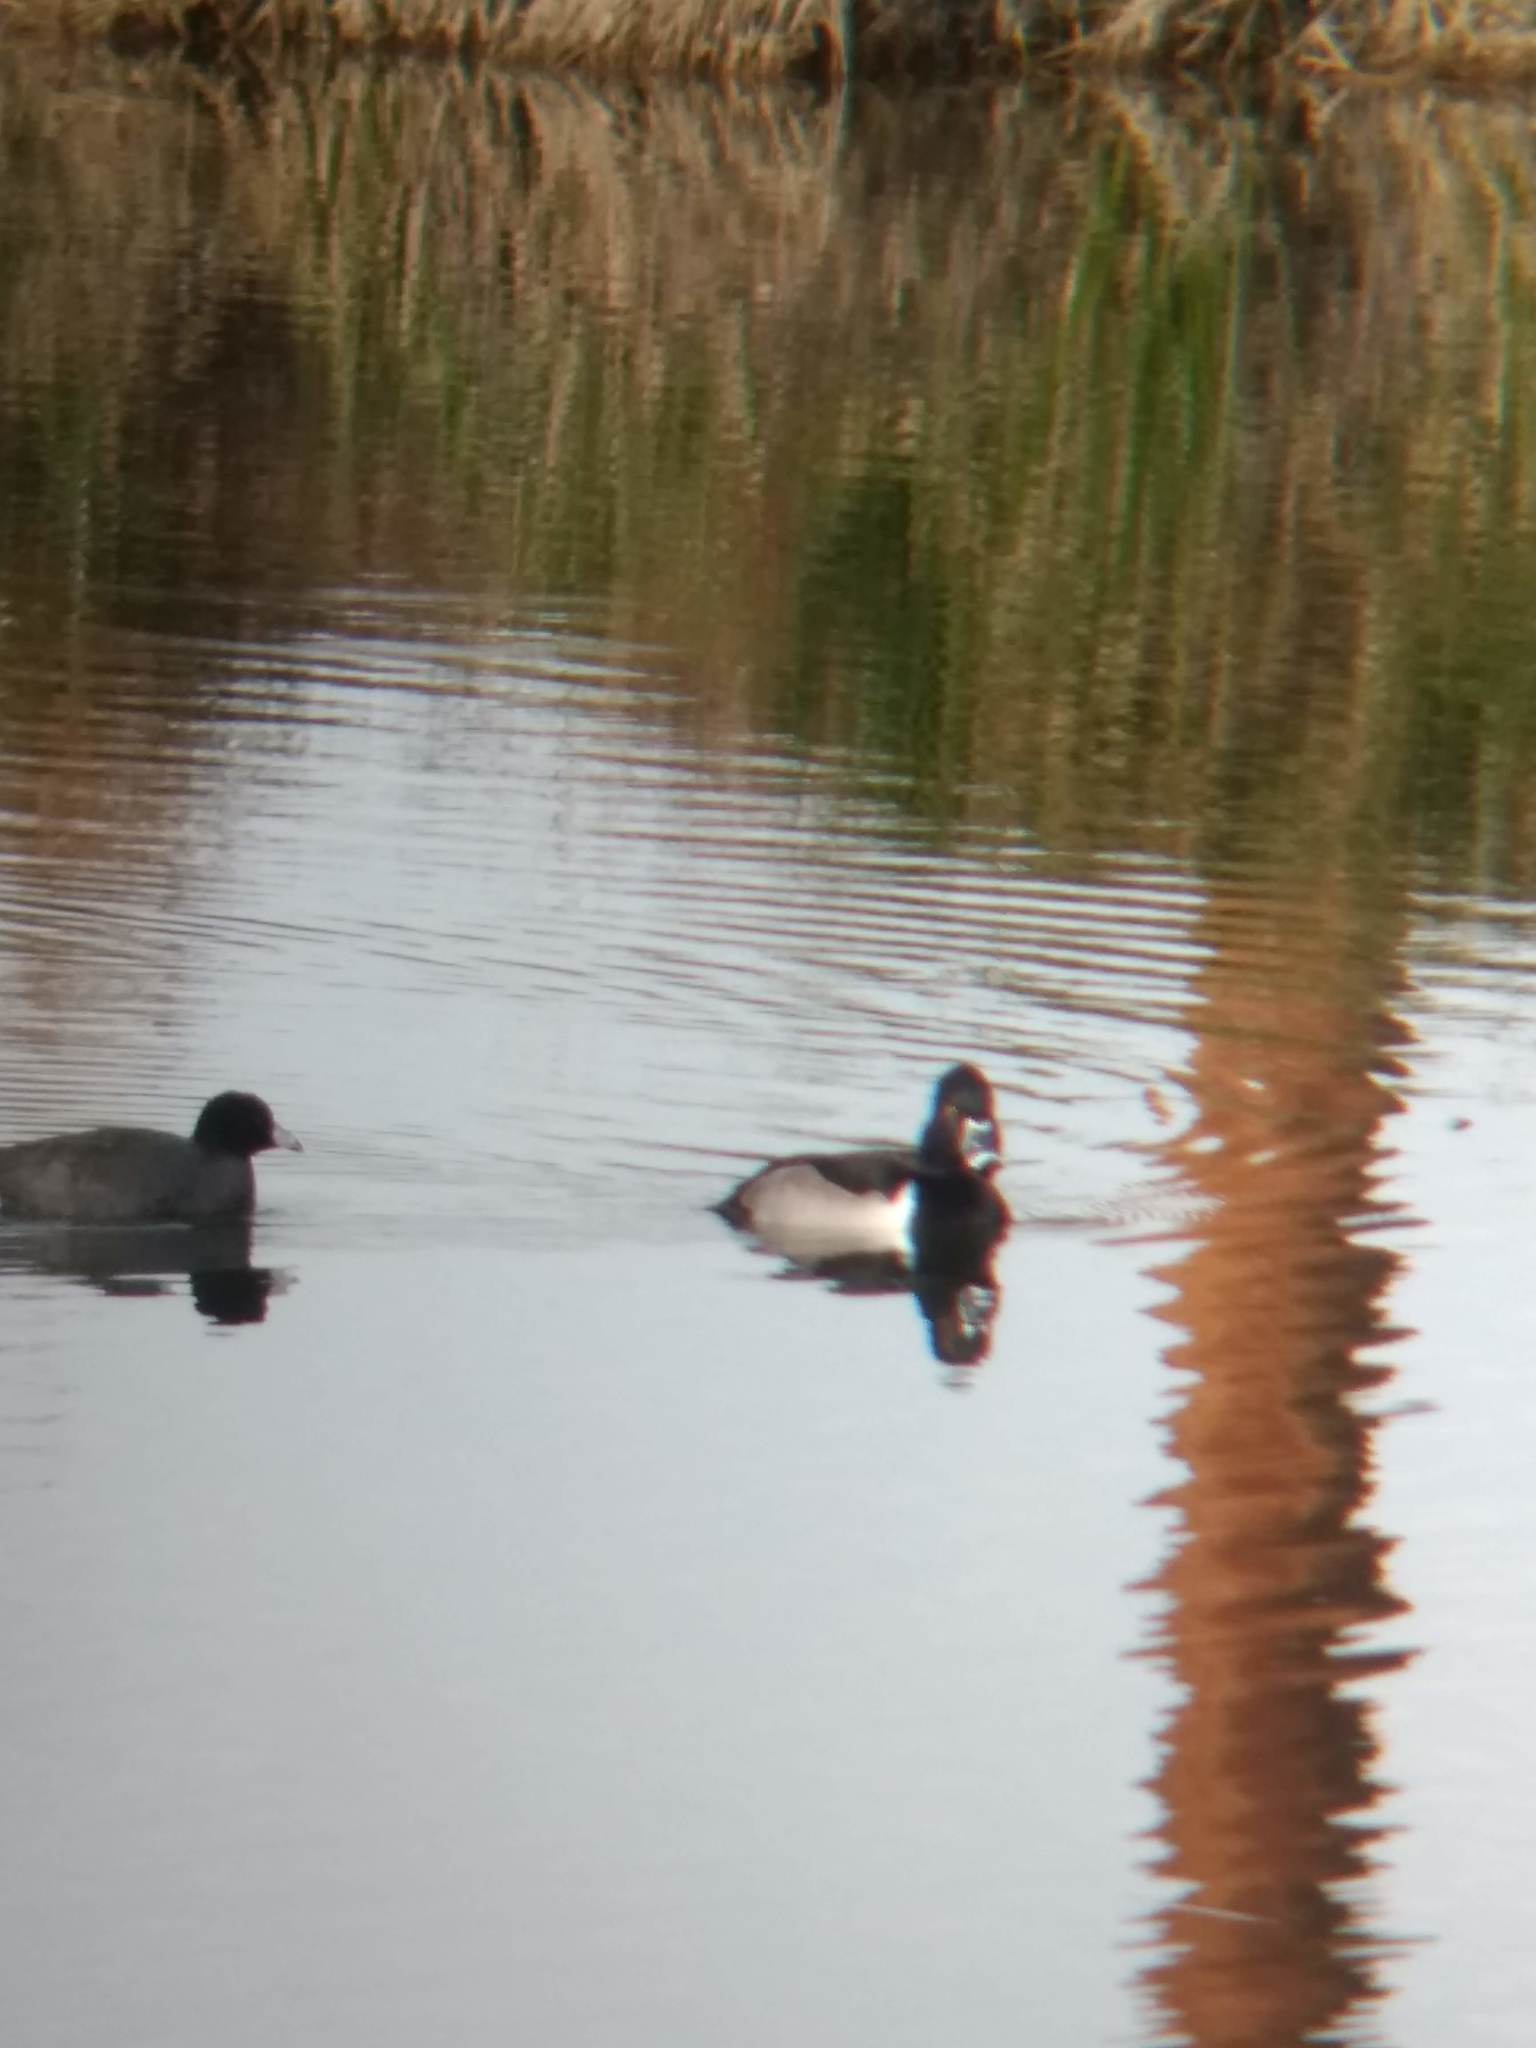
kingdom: Animalia
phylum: Chordata
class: Aves
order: Anseriformes
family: Anatidae
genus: Aythya
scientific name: Aythya collaris
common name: Ring-necked duck
